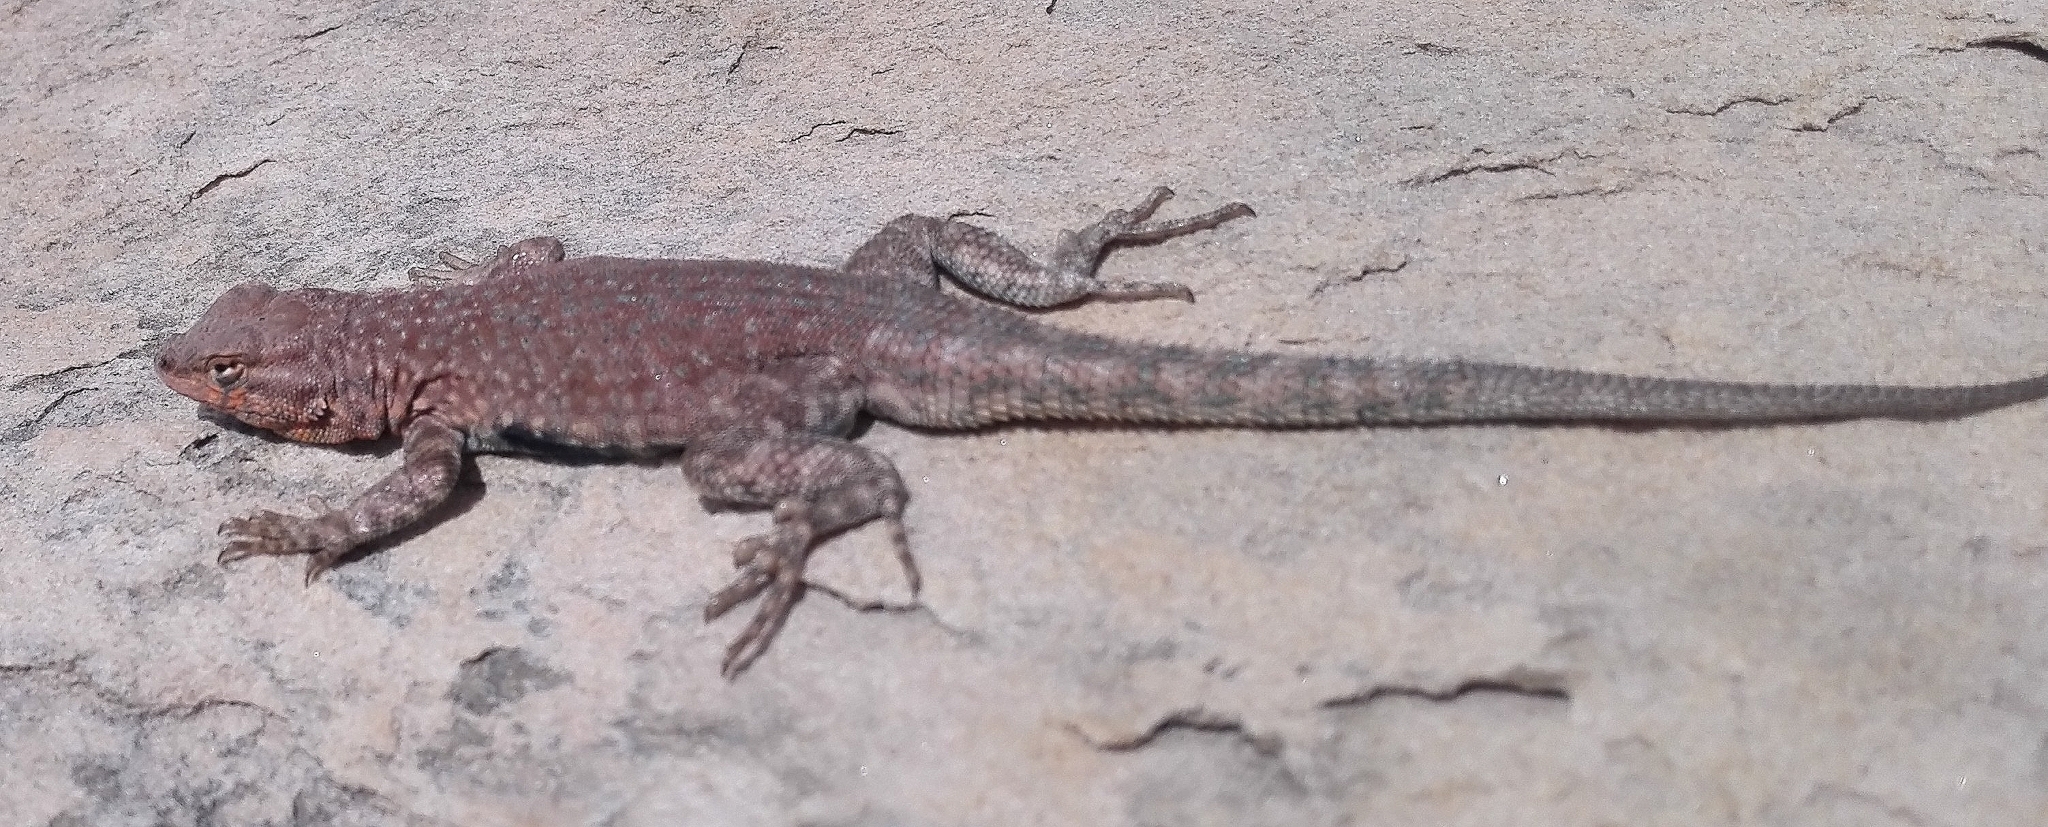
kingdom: Animalia
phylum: Chordata
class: Squamata
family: Phrynosomatidae
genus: Uta
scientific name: Uta stansburiana
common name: Side-blotched lizard
